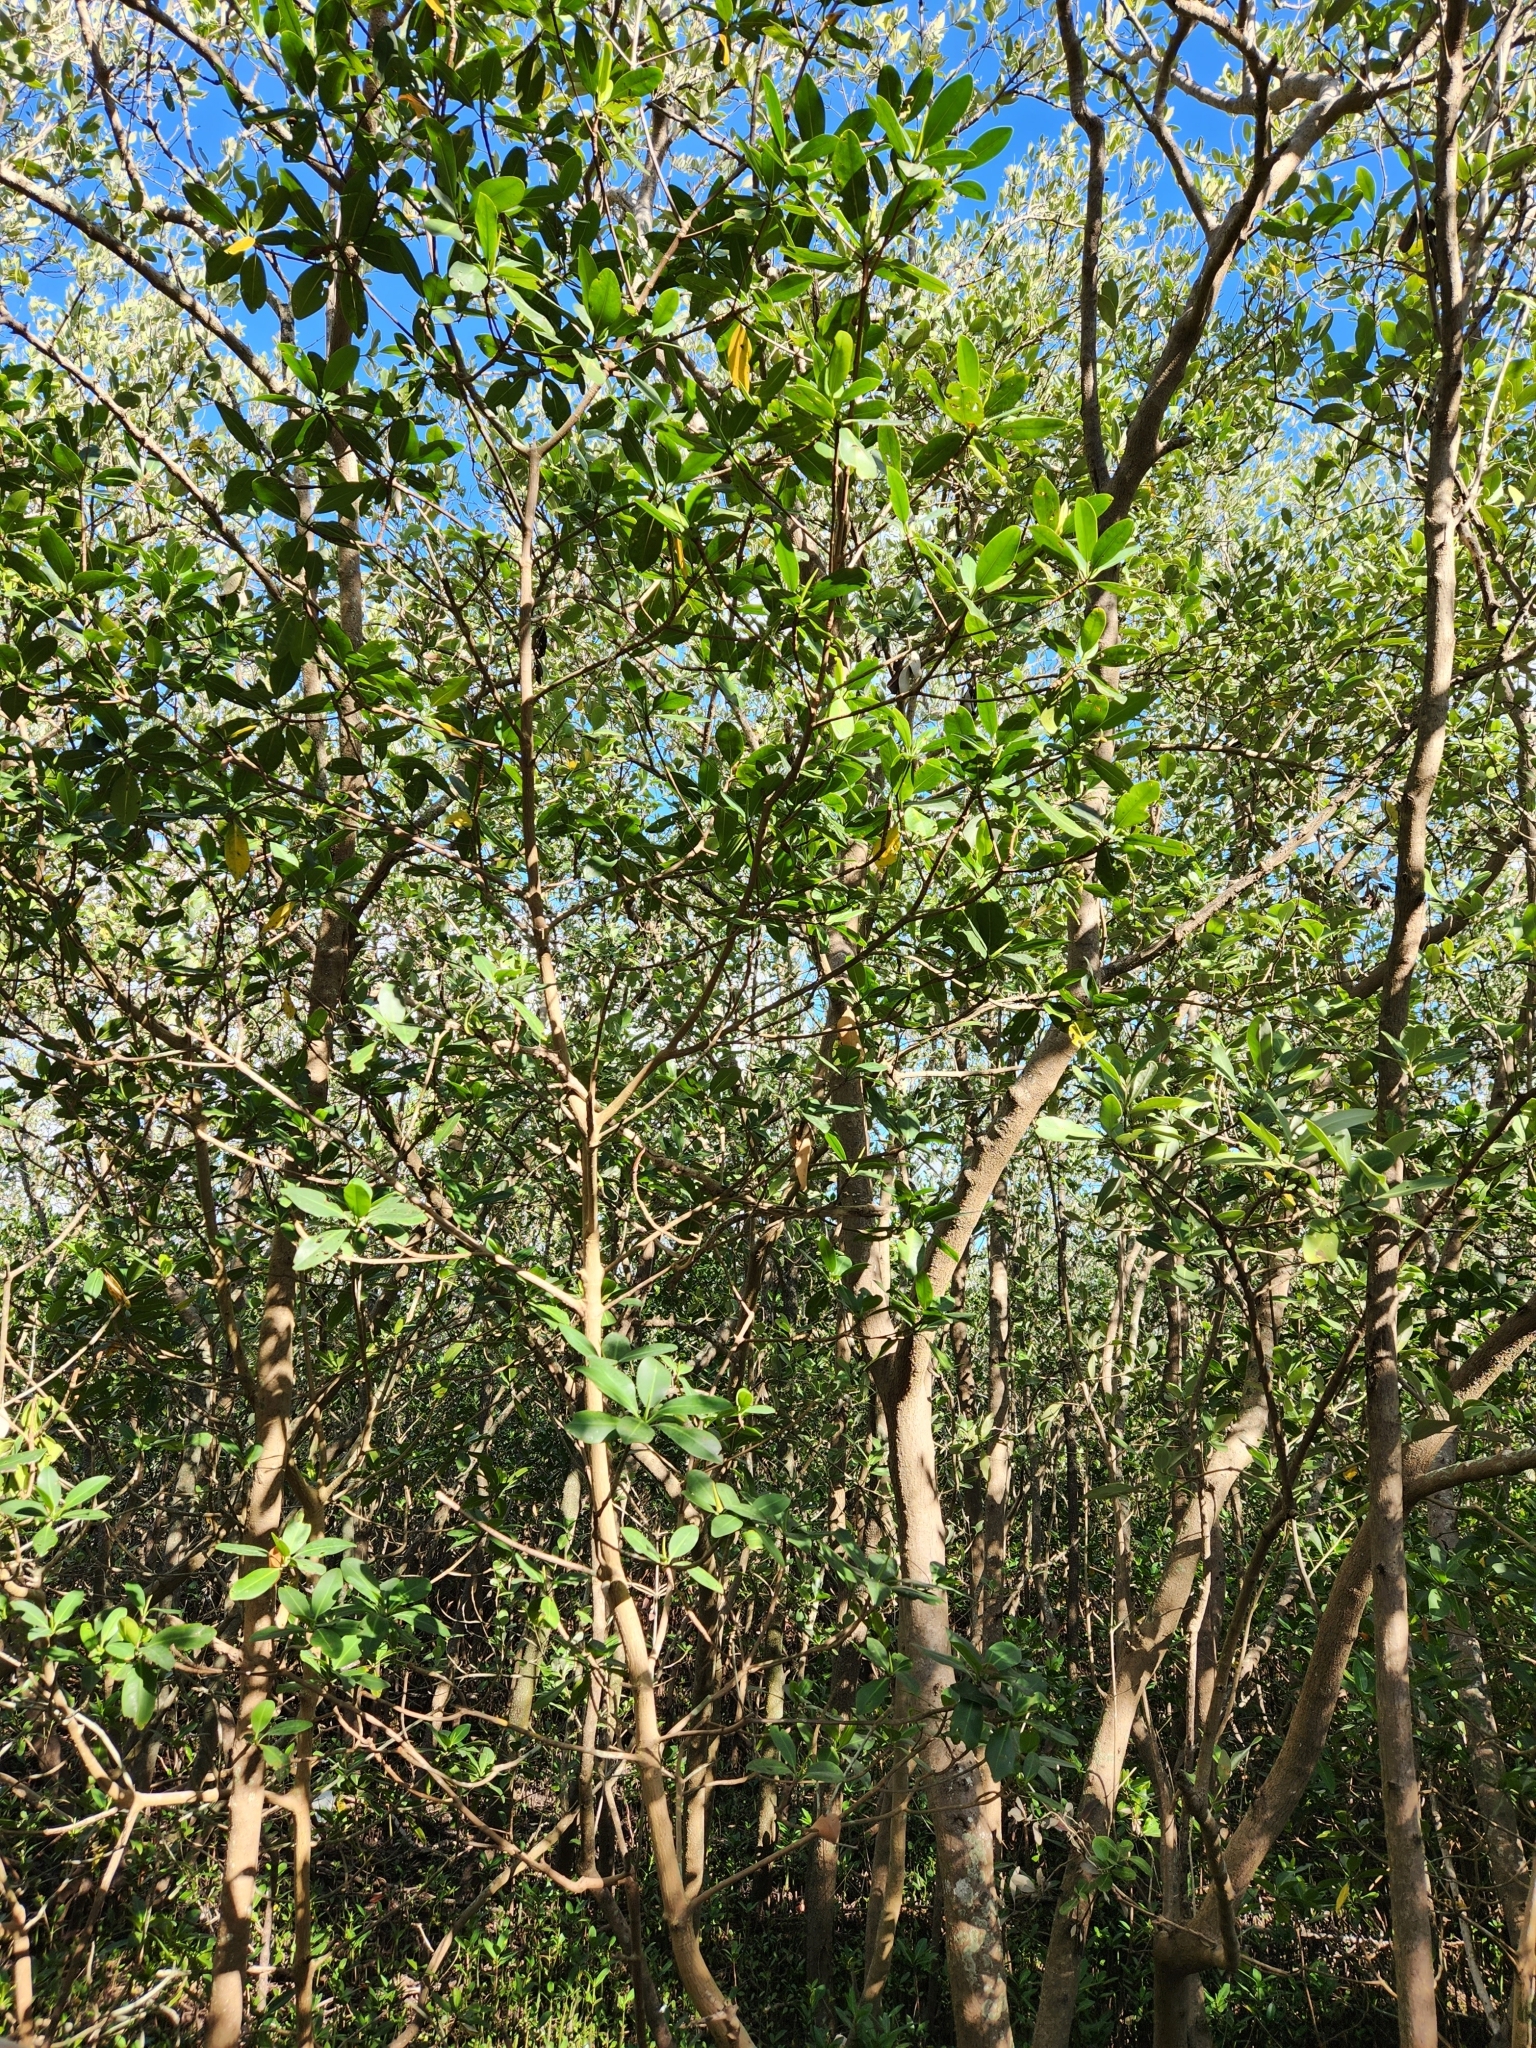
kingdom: Plantae
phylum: Tracheophyta
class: Magnoliopsida
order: Malpighiales
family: Rhizophoraceae
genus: Rhizophora
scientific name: Rhizophora mangle
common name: Red mangrove
